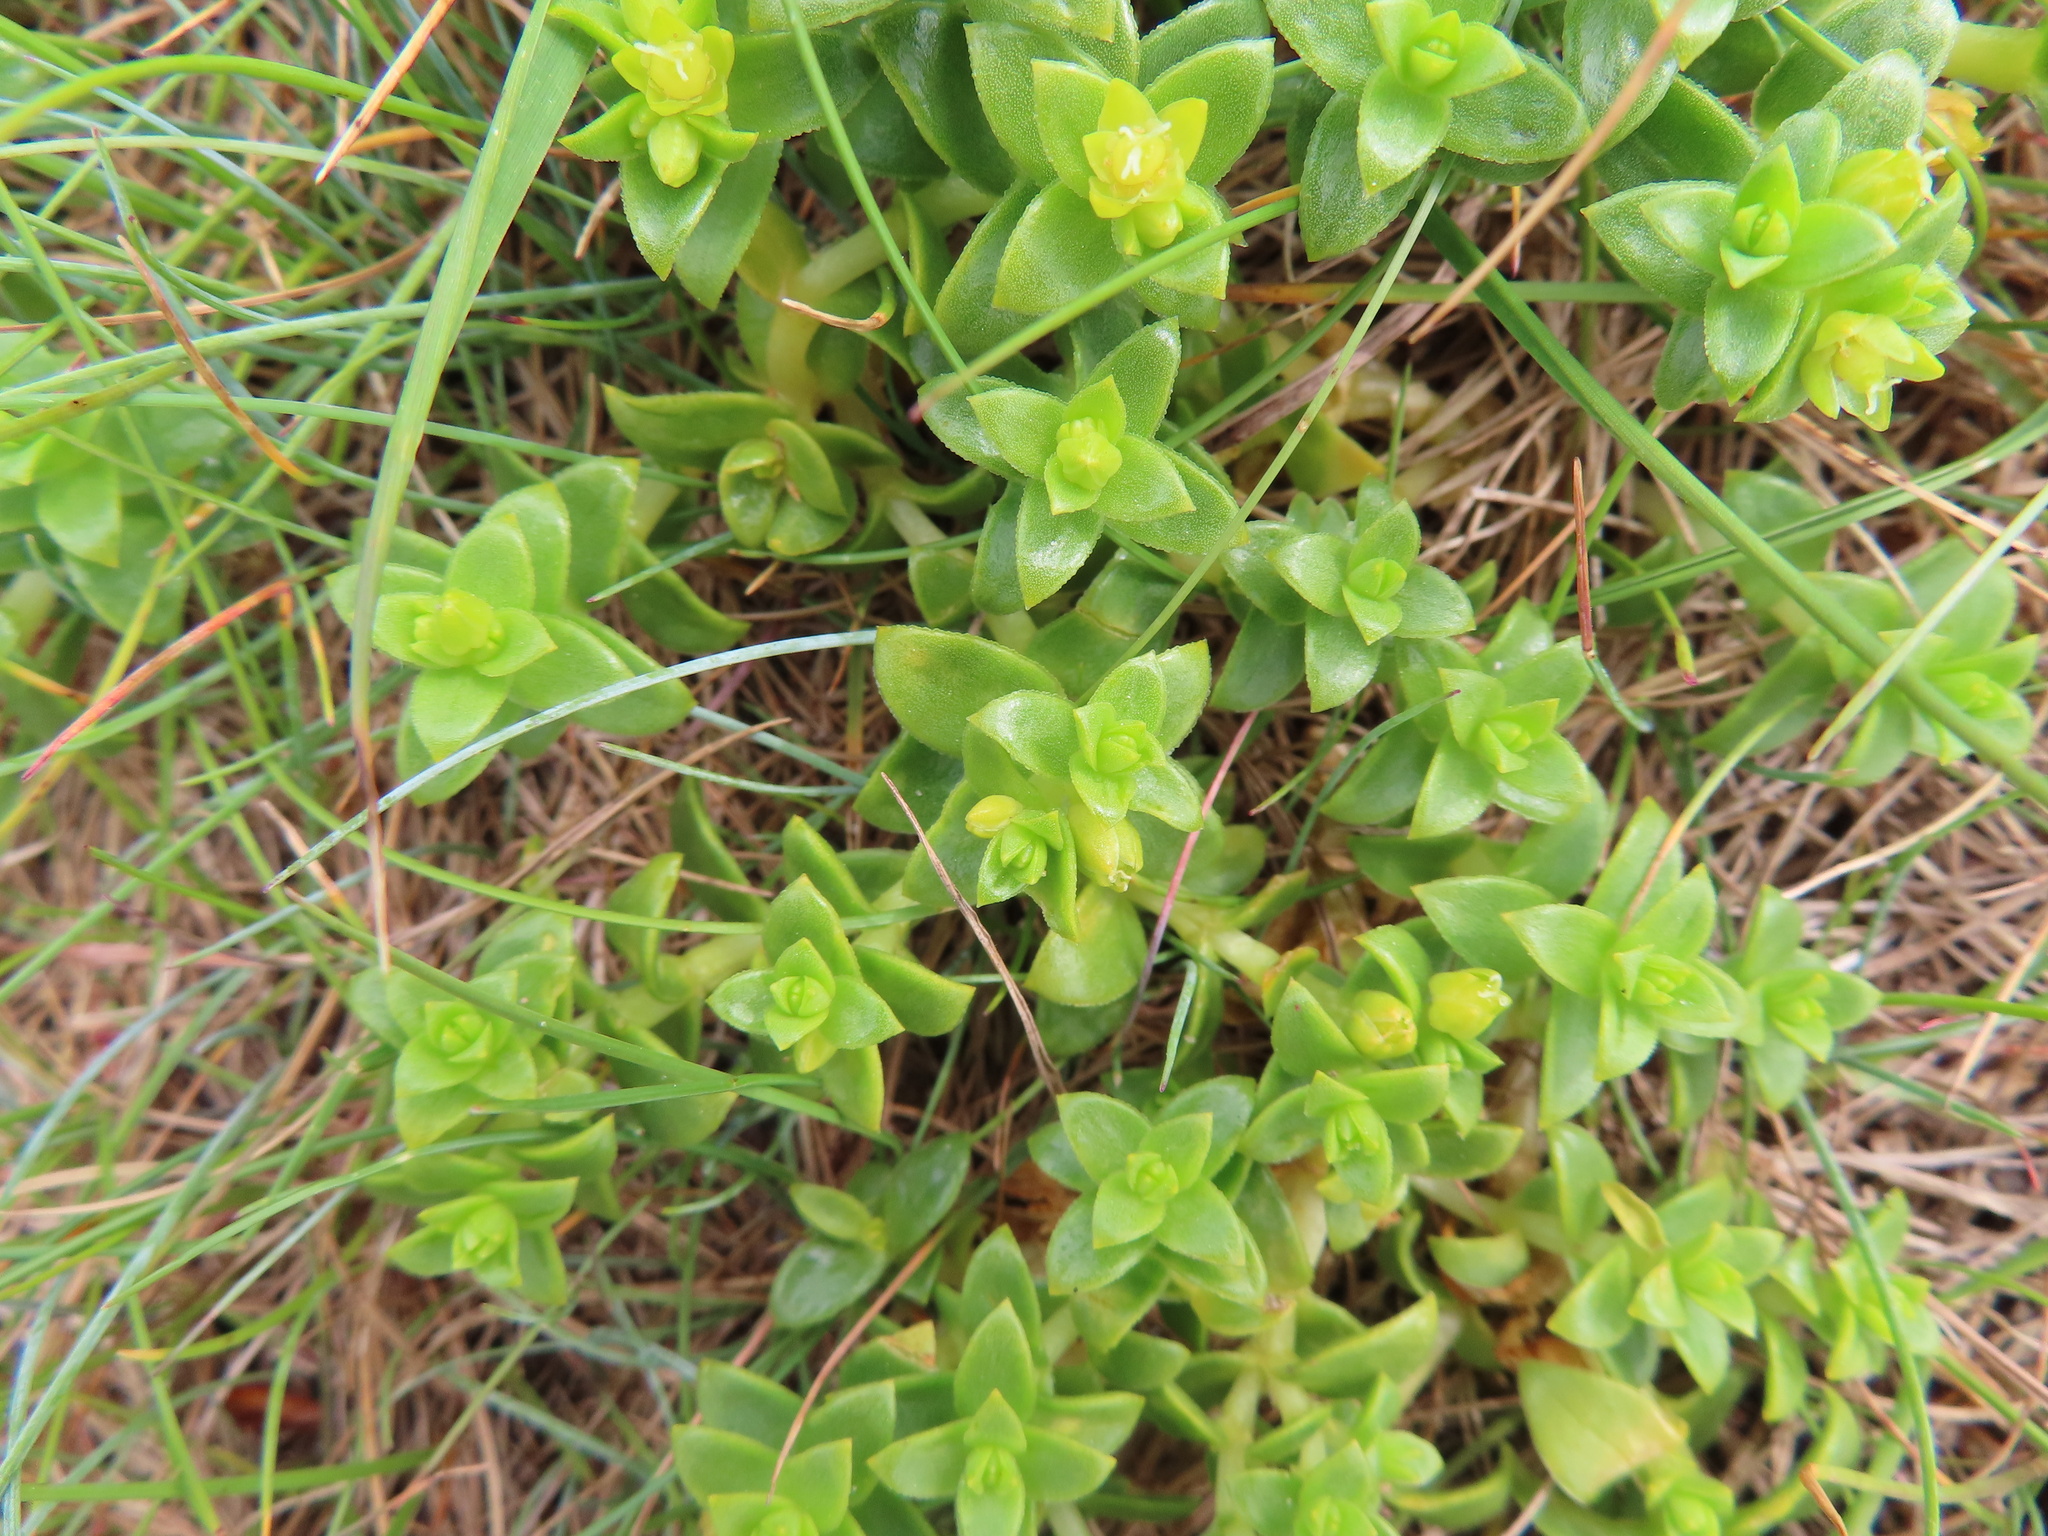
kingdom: Plantae
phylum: Tracheophyta
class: Magnoliopsida
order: Caryophyllales
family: Caryophyllaceae
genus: Honckenya
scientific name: Honckenya peploides
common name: Sea sandwort
